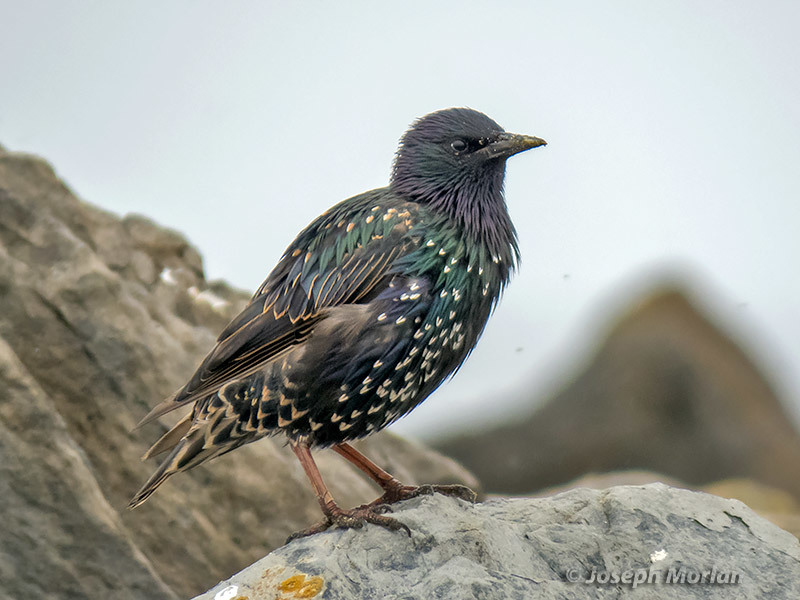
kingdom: Animalia
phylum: Chordata
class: Aves
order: Passeriformes
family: Sturnidae
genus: Sturnus
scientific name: Sturnus vulgaris
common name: Common starling
